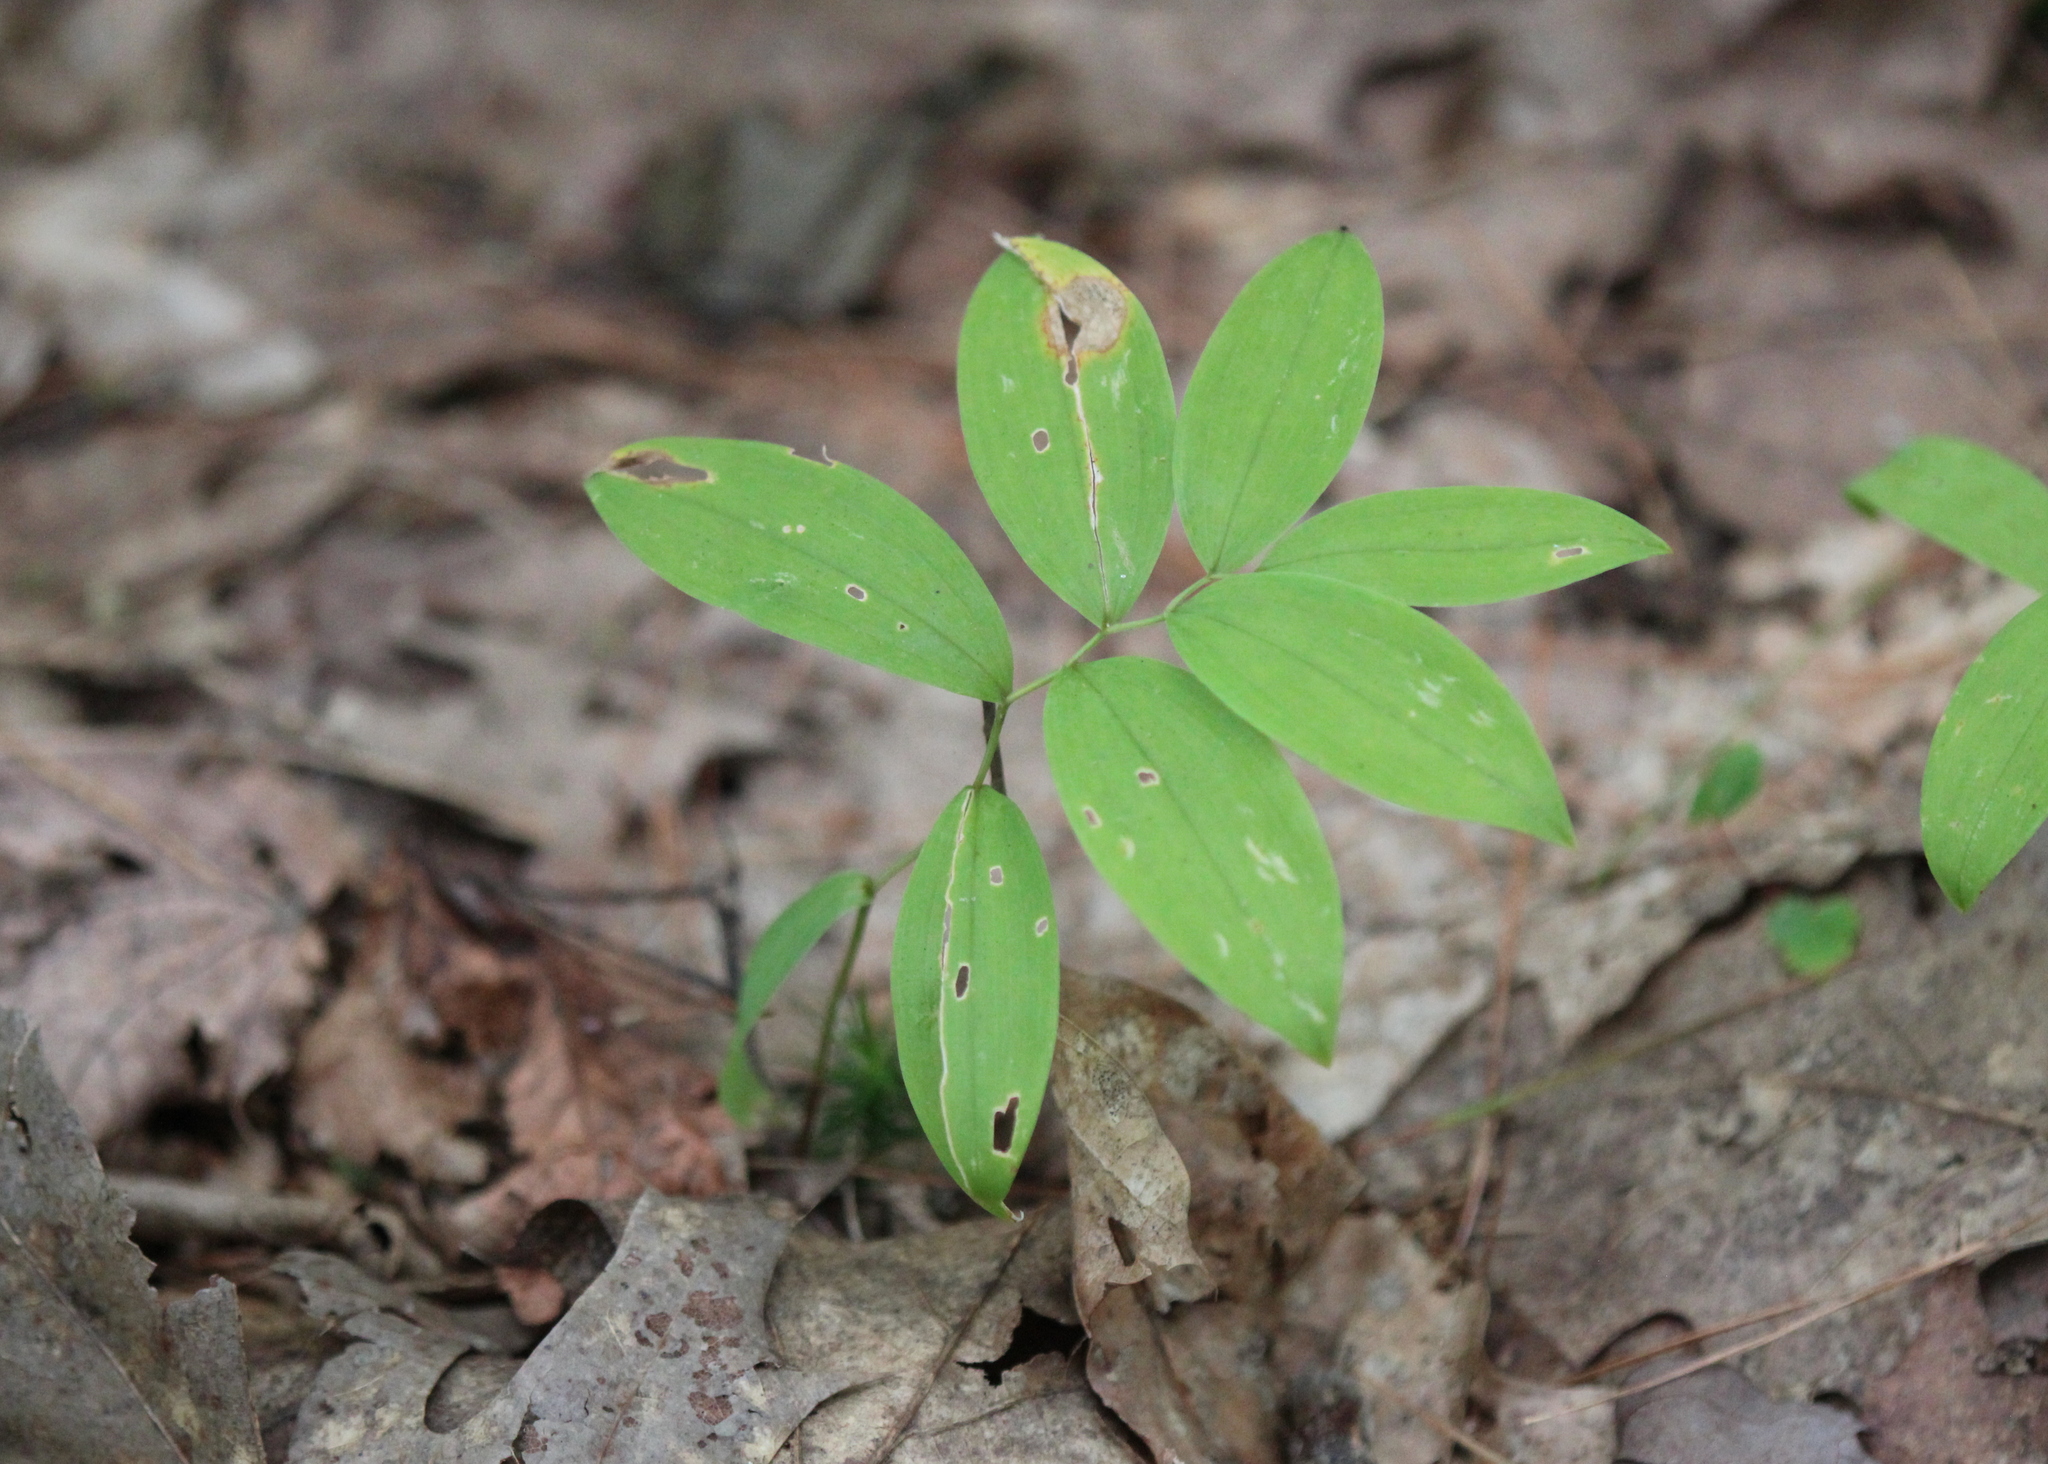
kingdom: Plantae
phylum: Tracheophyta
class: Liliopsida
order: Liliales
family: Colchicaceae
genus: Uvularia
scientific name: Uvularia sessilifolia
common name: Straw-lily
